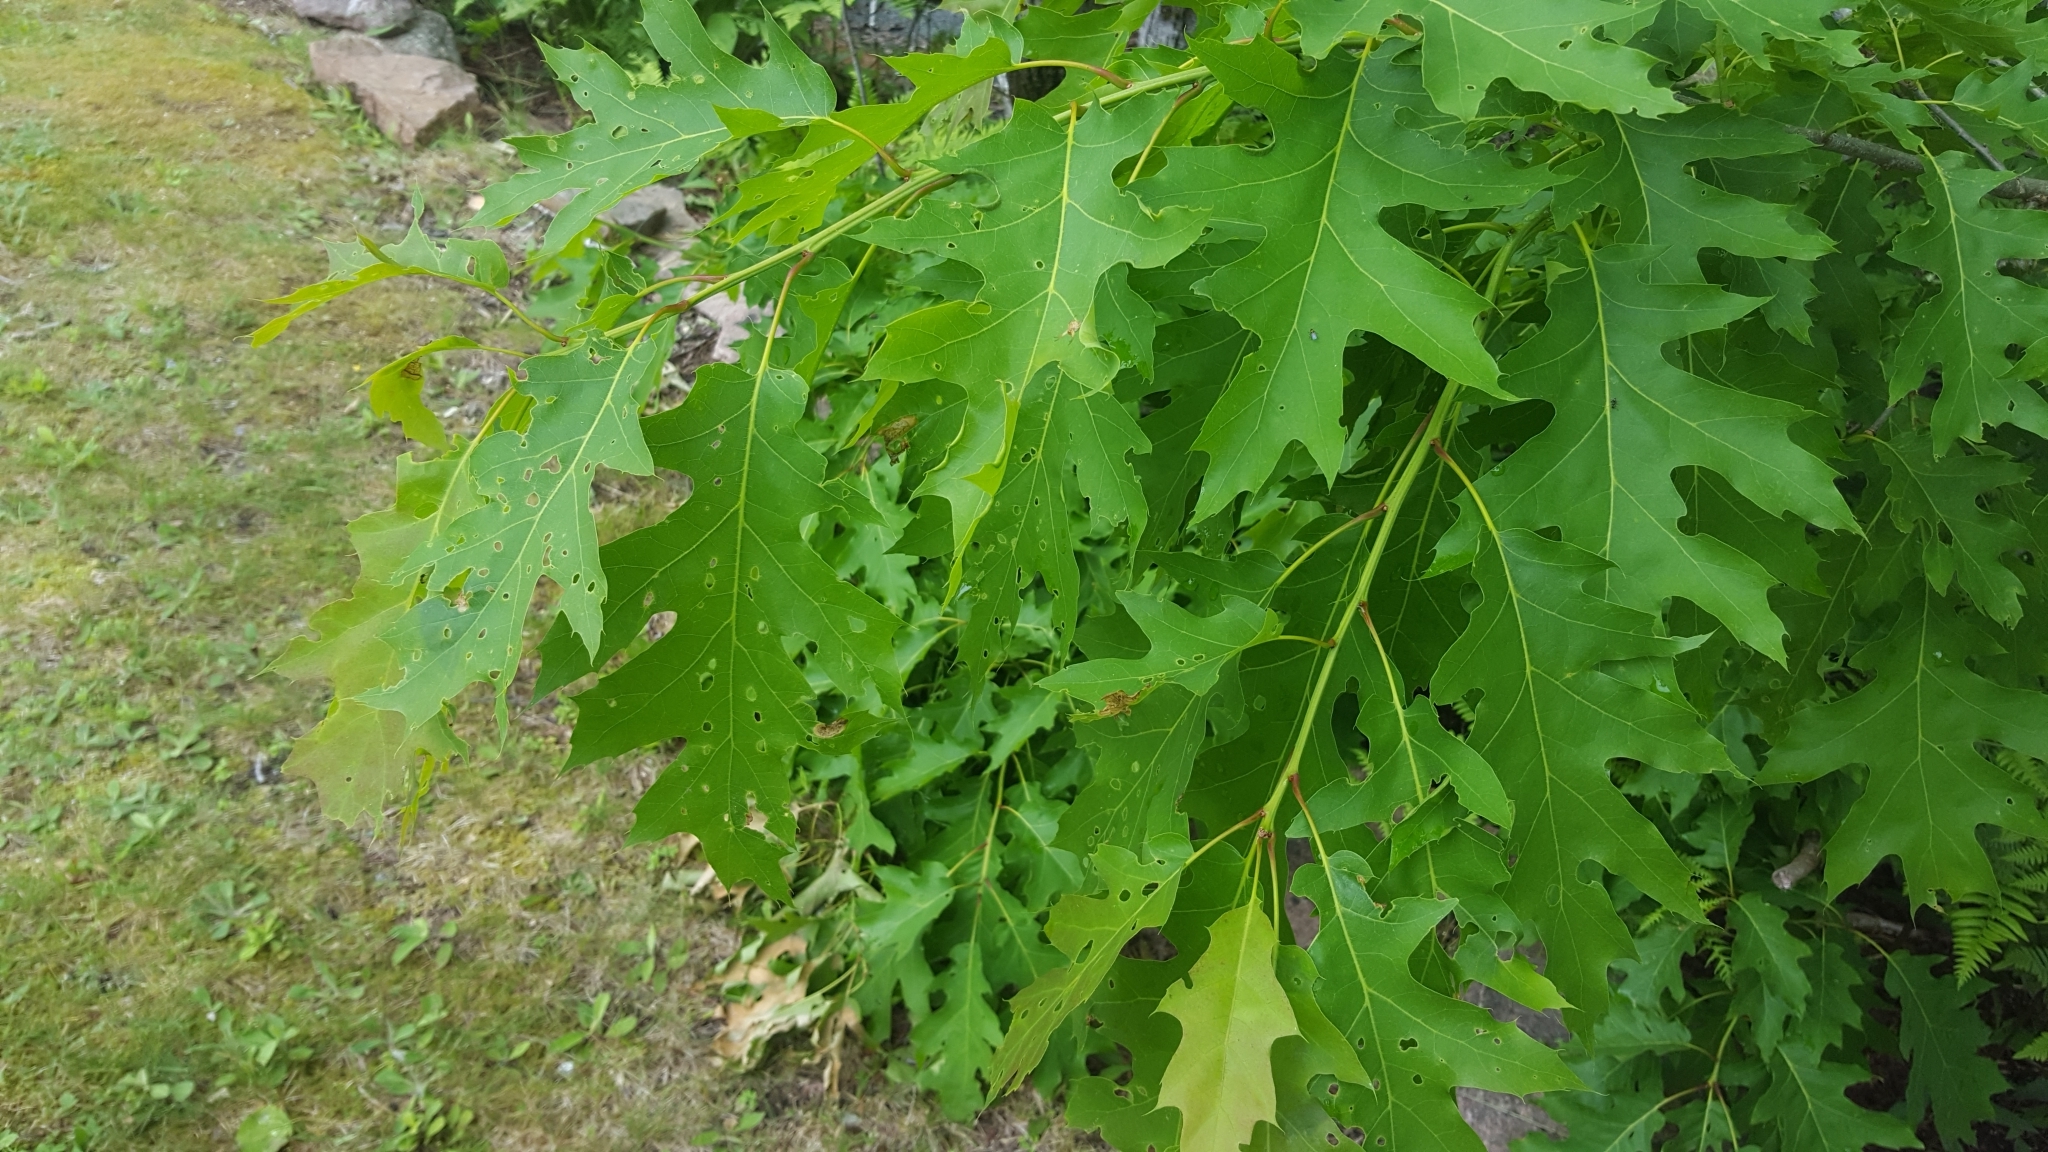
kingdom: Plantae
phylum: Tracheophyta
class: Magnoliopsida
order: Fagales
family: Fagaceae
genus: Quercus
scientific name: Quercus rubra
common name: Red oak
